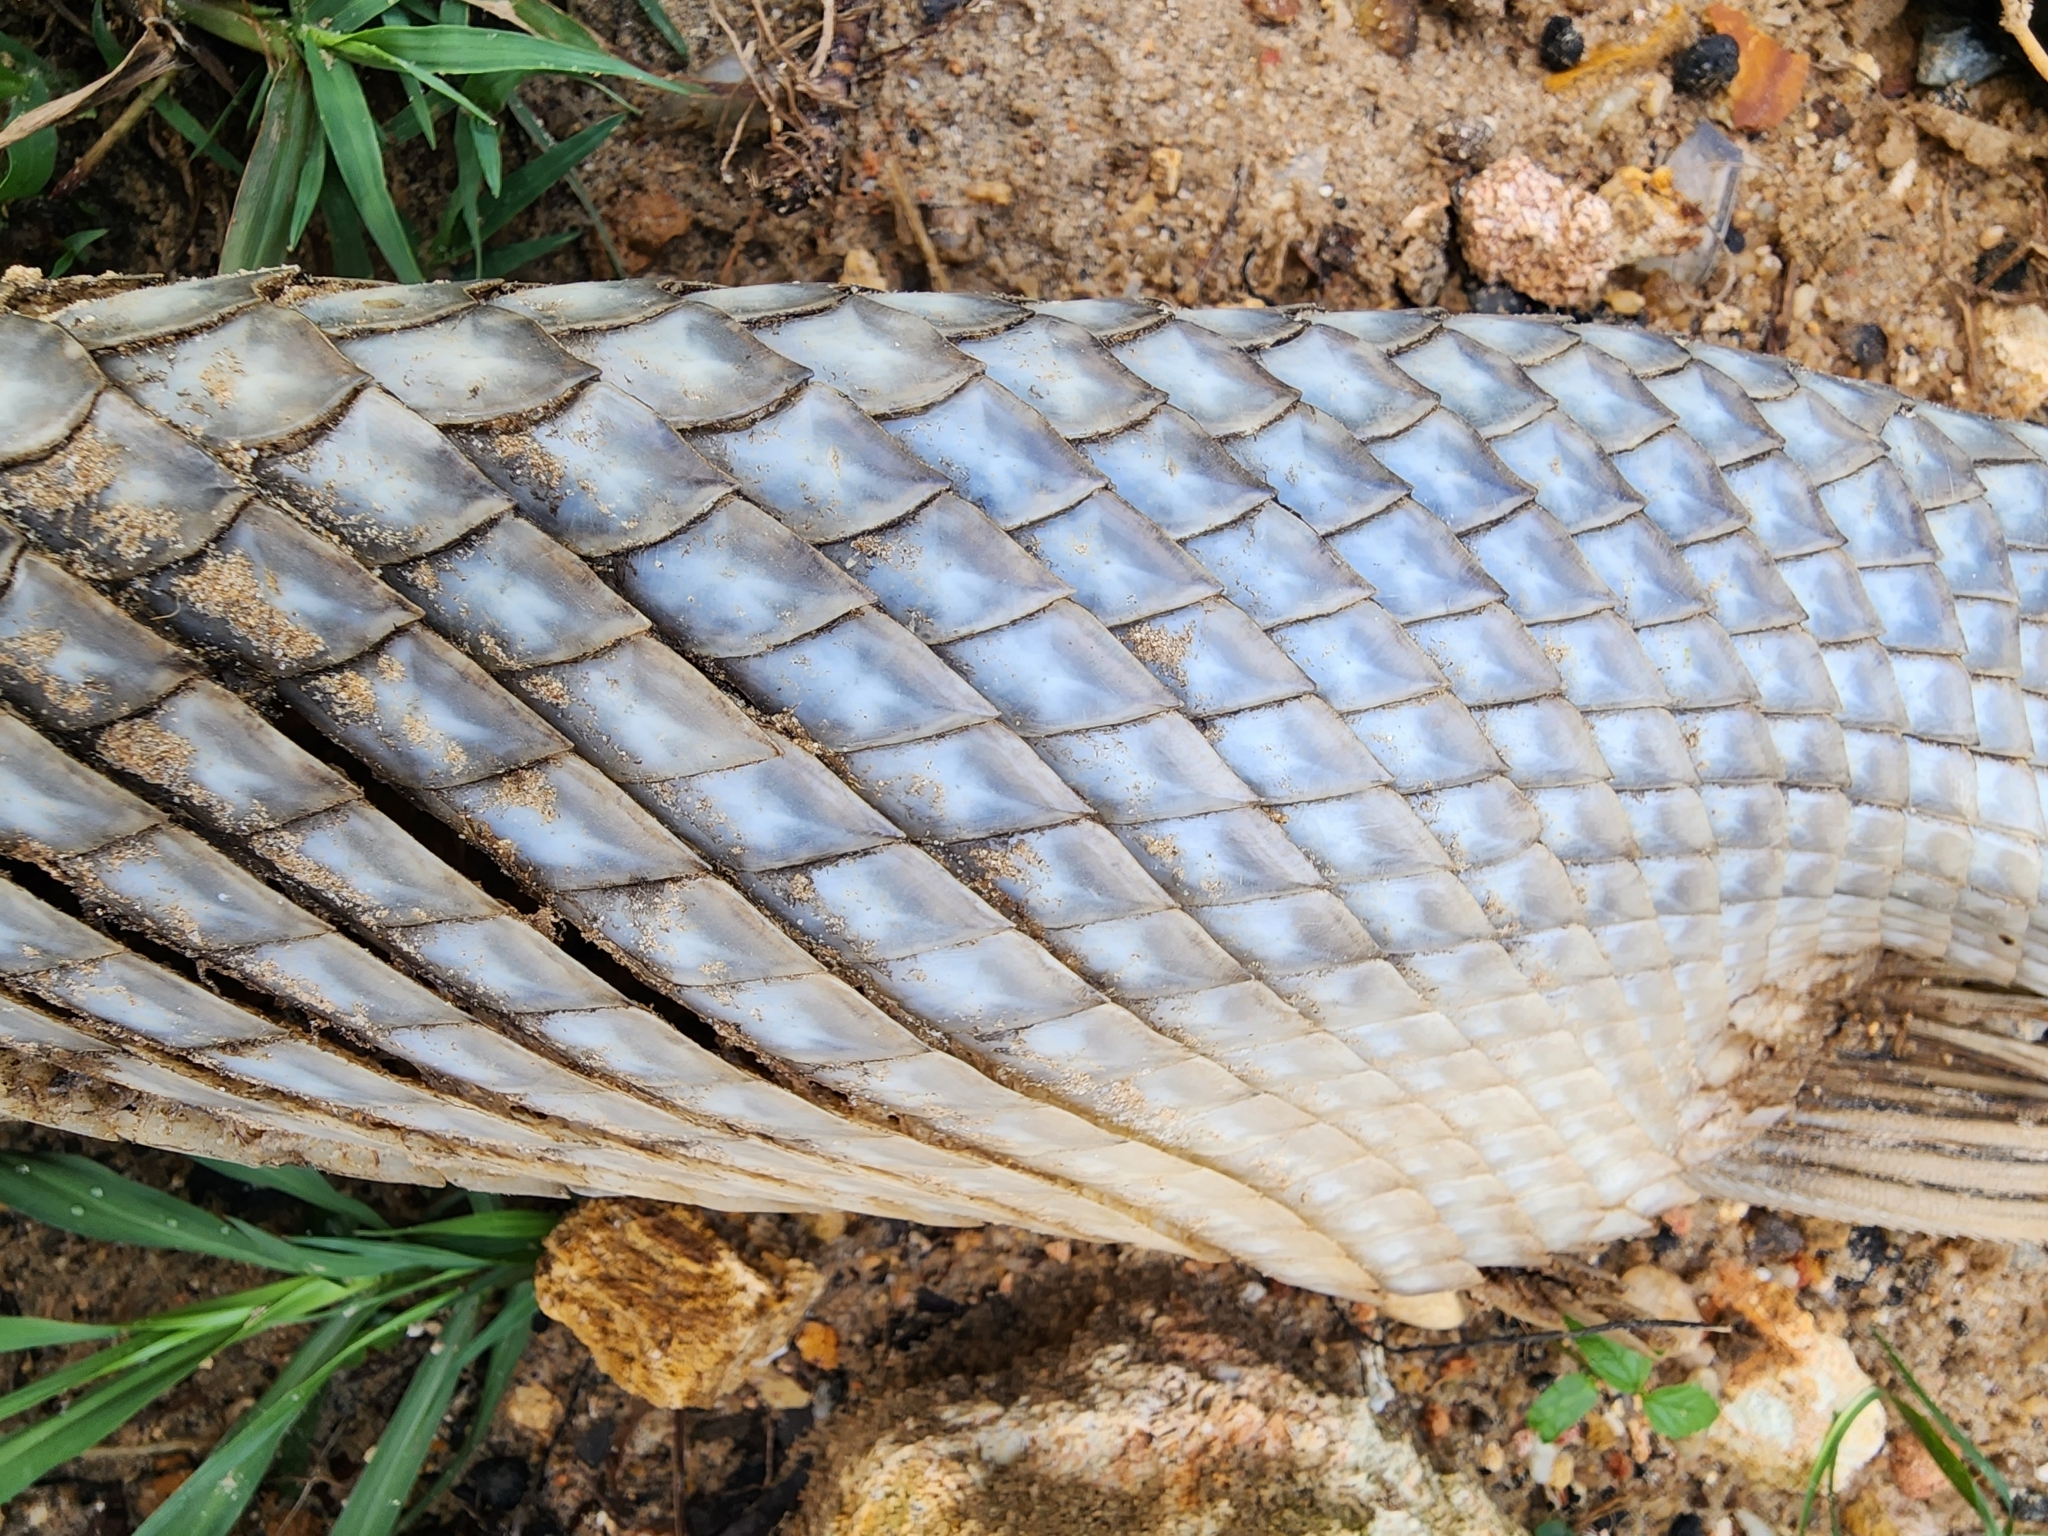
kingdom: Animalia
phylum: Chordata
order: Lepisosteiformes
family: Lepisosteidae
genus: Lepisosteus
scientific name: Lepisosteus osseus
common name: Longnose gar
